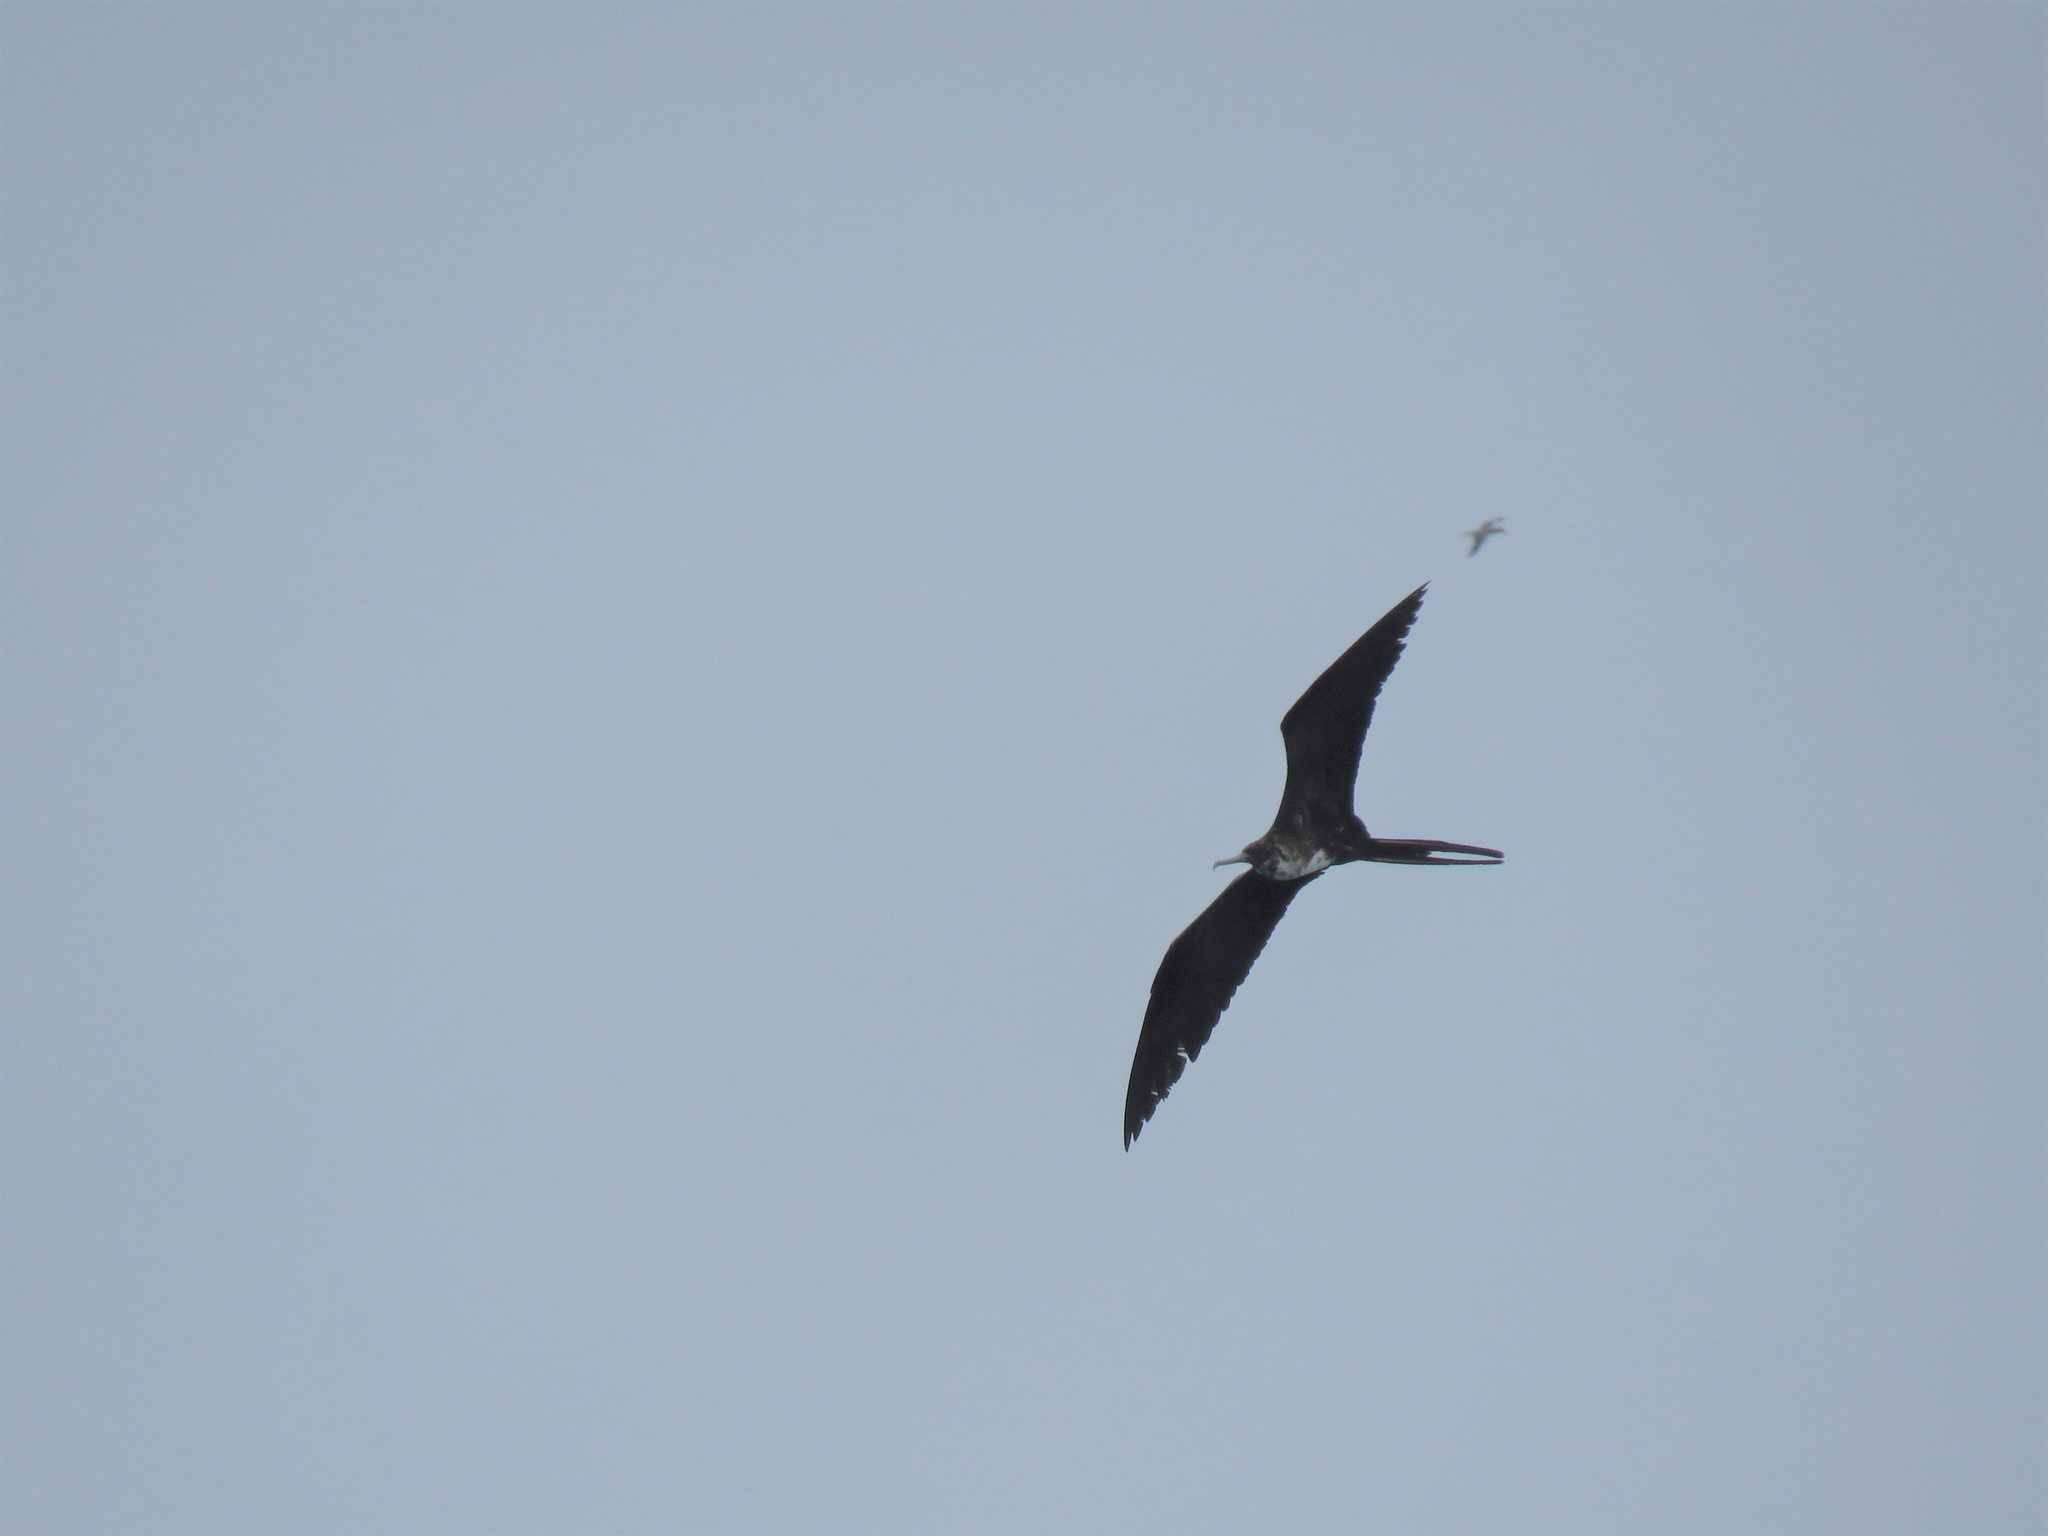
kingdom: Animalia
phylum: Chordata
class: Aves
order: Suliformes
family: Fregatidae
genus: Fregata
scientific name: Fregata magnificens
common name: Magnificent frigatebird
